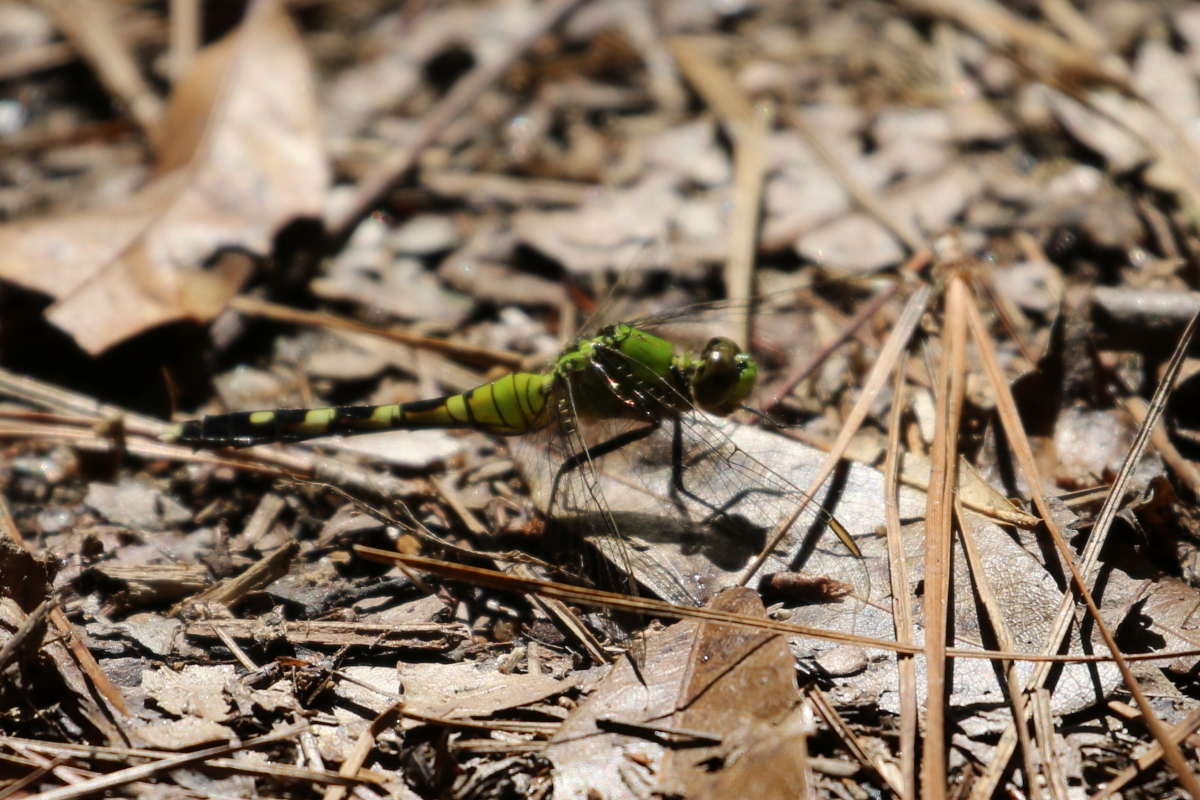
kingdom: Animalia
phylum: Arthropoda
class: Insecta
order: Odonata
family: Libellulidae
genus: Erythemis
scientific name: Erythemis simplicicollis
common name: Eastern pondhawk
